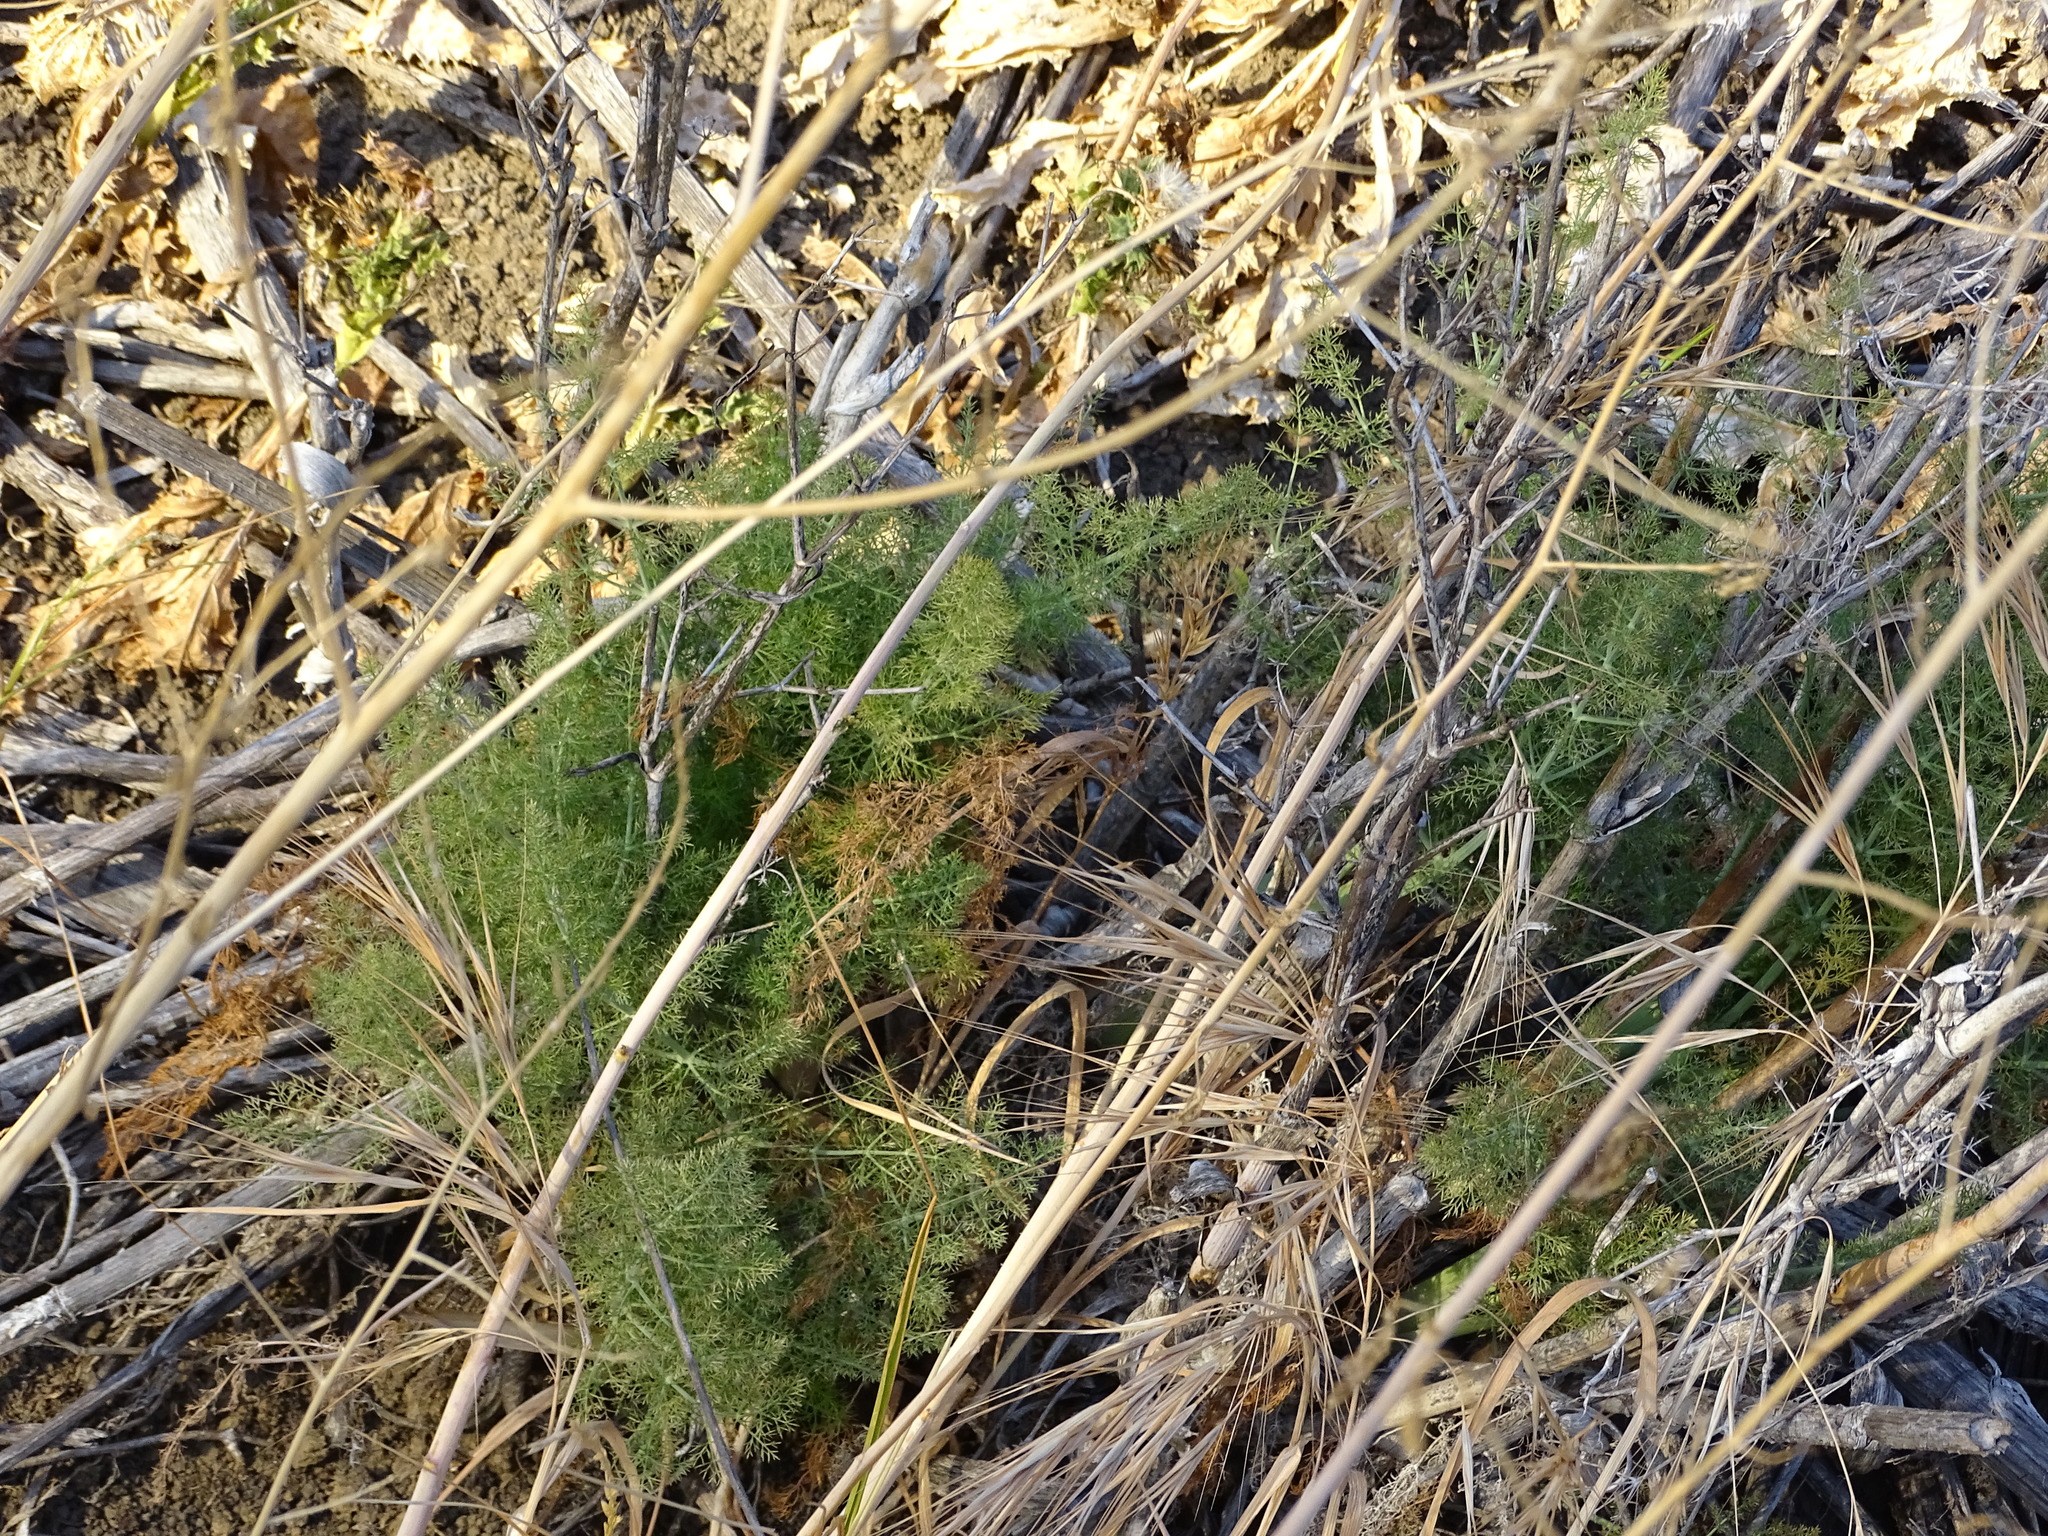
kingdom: Plantae
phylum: Tracheophyta
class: Magnoliopsida
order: Apiales
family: Apiaceae
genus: Foeniculum
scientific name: Foeniculum vulgare
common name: Fennel
